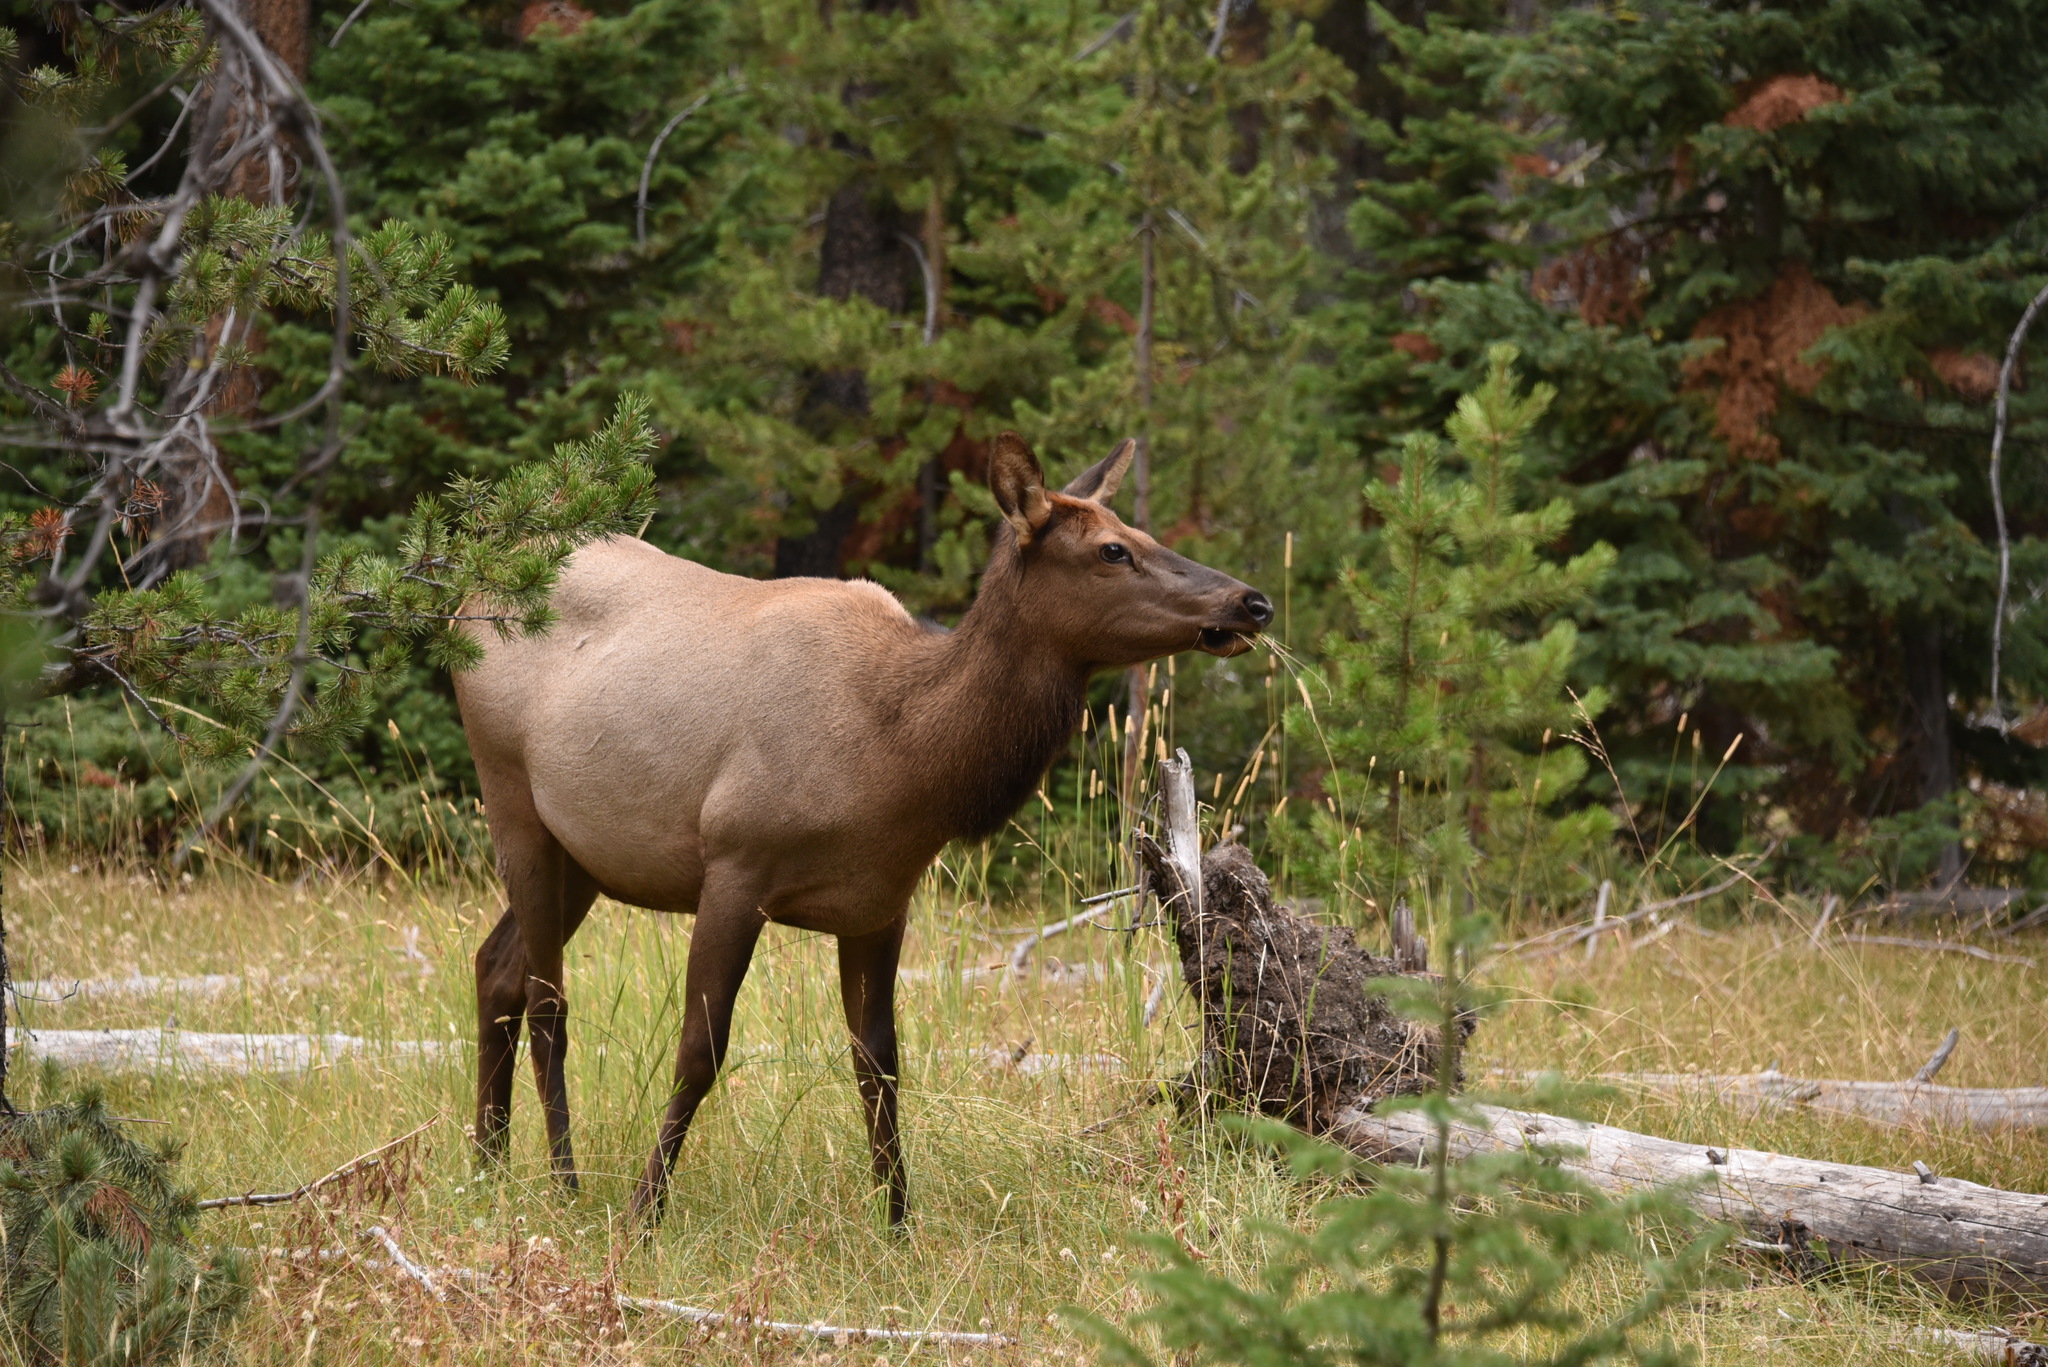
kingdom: Animalia
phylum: Chordata
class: Mammalia
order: Artiodactyla
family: Cervidae
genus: Cervus
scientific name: Cervus elaphus
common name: Red deer
